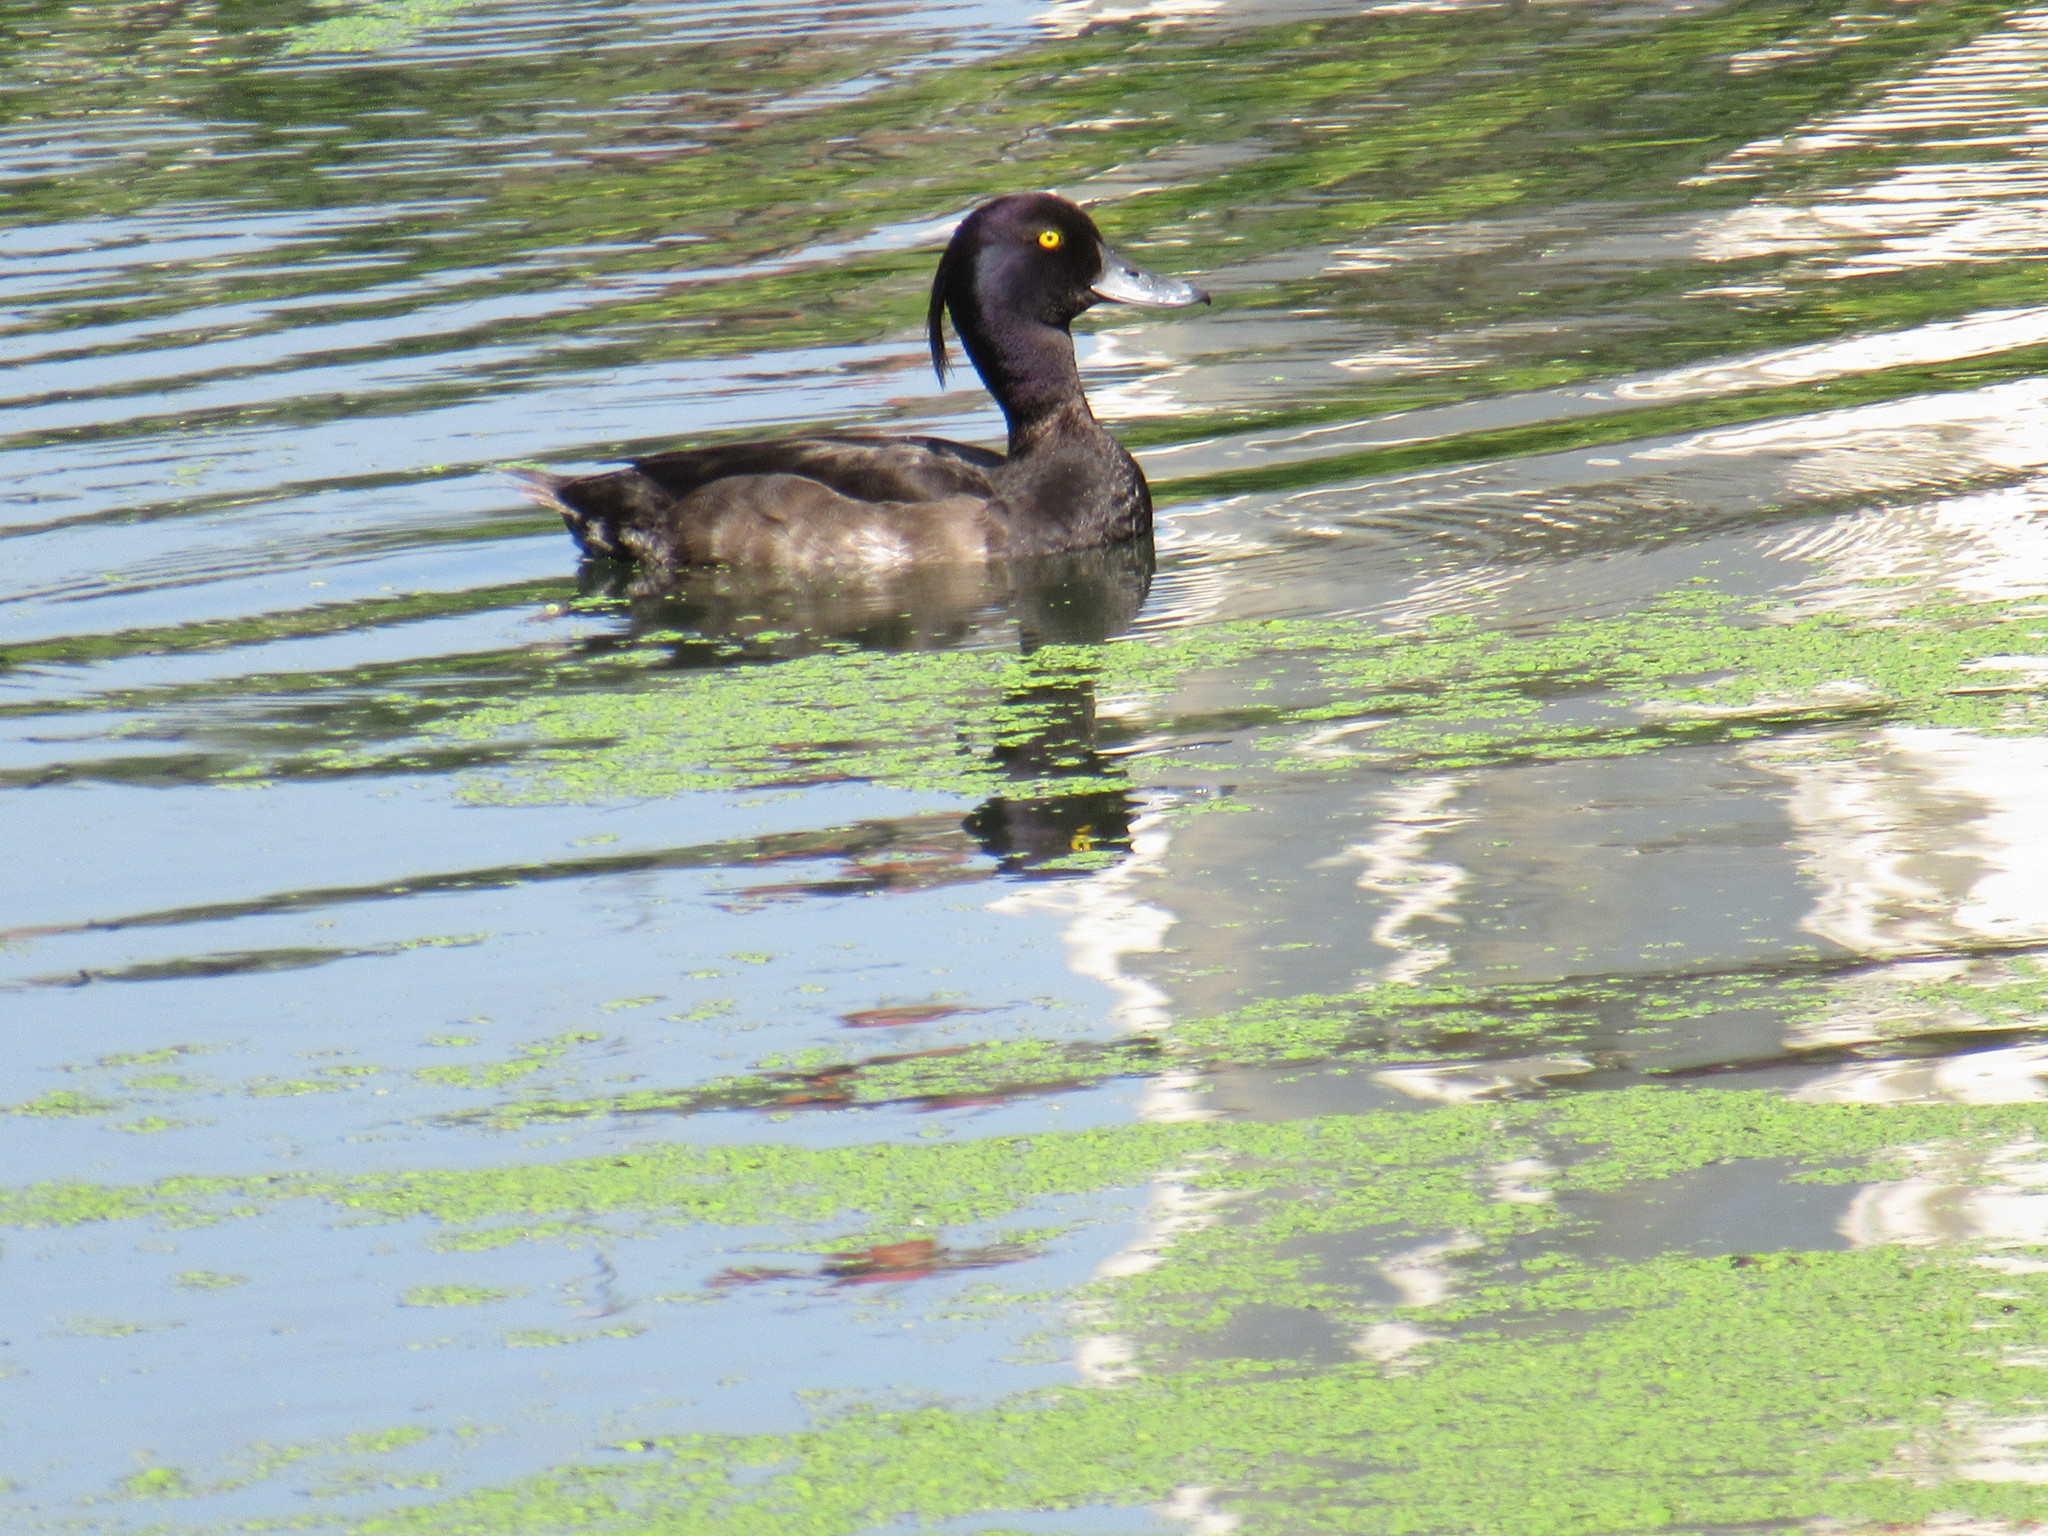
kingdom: Animalia
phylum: Chordata
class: Aves
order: Anseriformes
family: Anatidae
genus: Aythya
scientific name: Aythya fuligula
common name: Tufted duck
